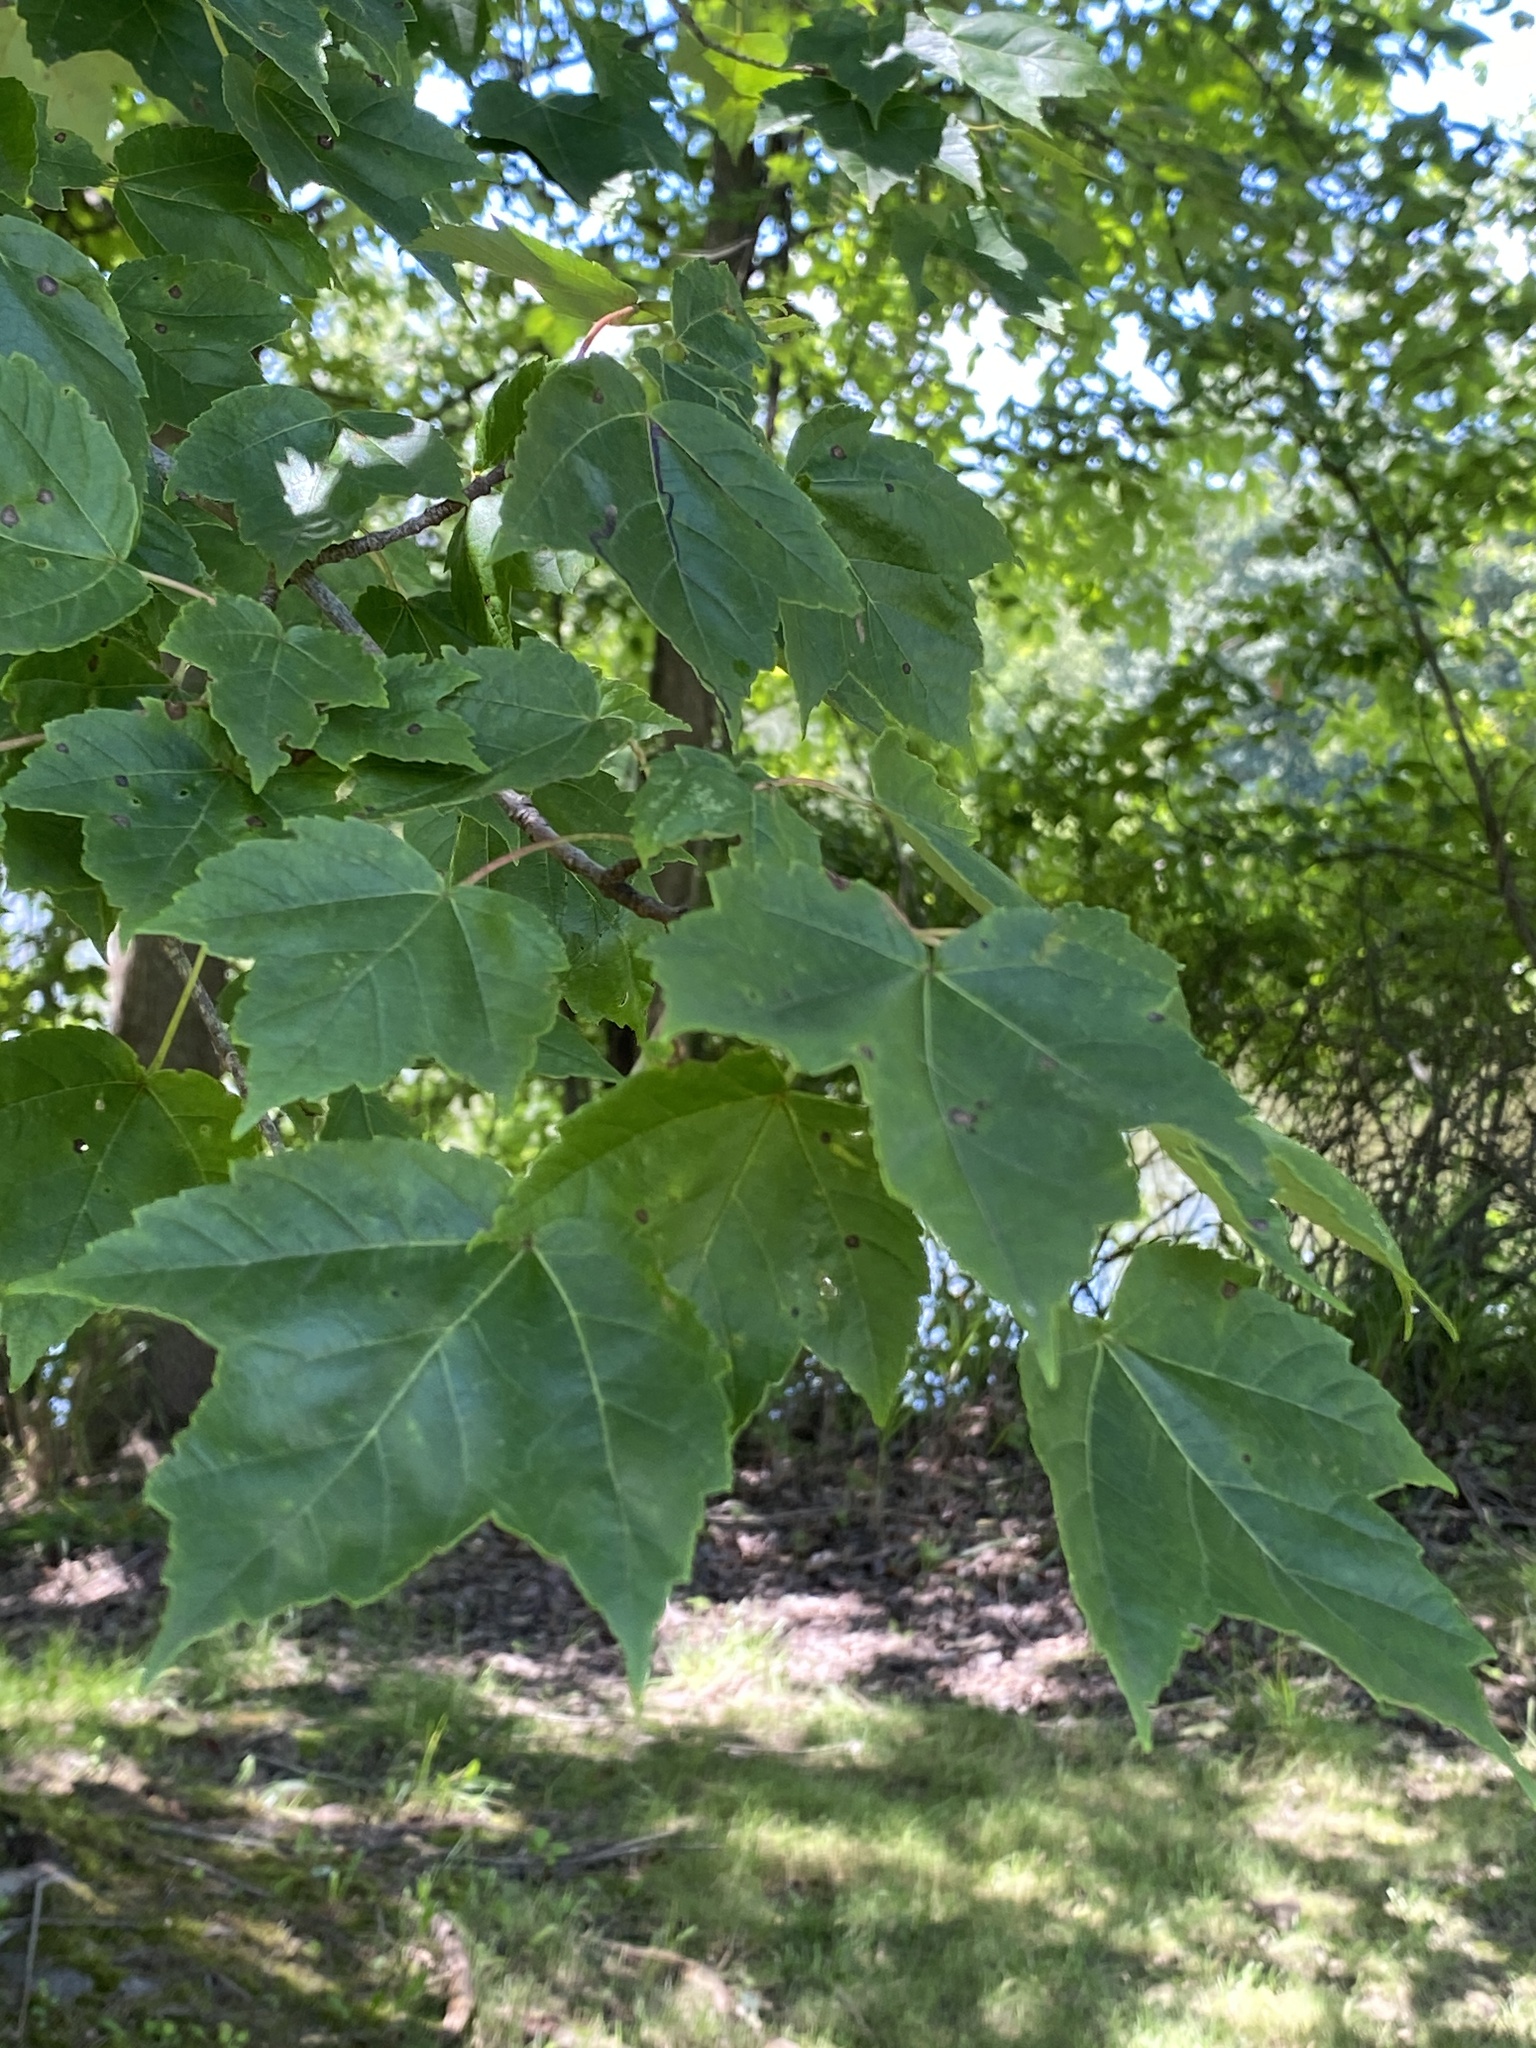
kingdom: Plantae
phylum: Tracheophyta
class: Magnoliopsida
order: Sapindales
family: Sapindaceae
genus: Acer
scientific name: Acer rubrum
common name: Red maple
